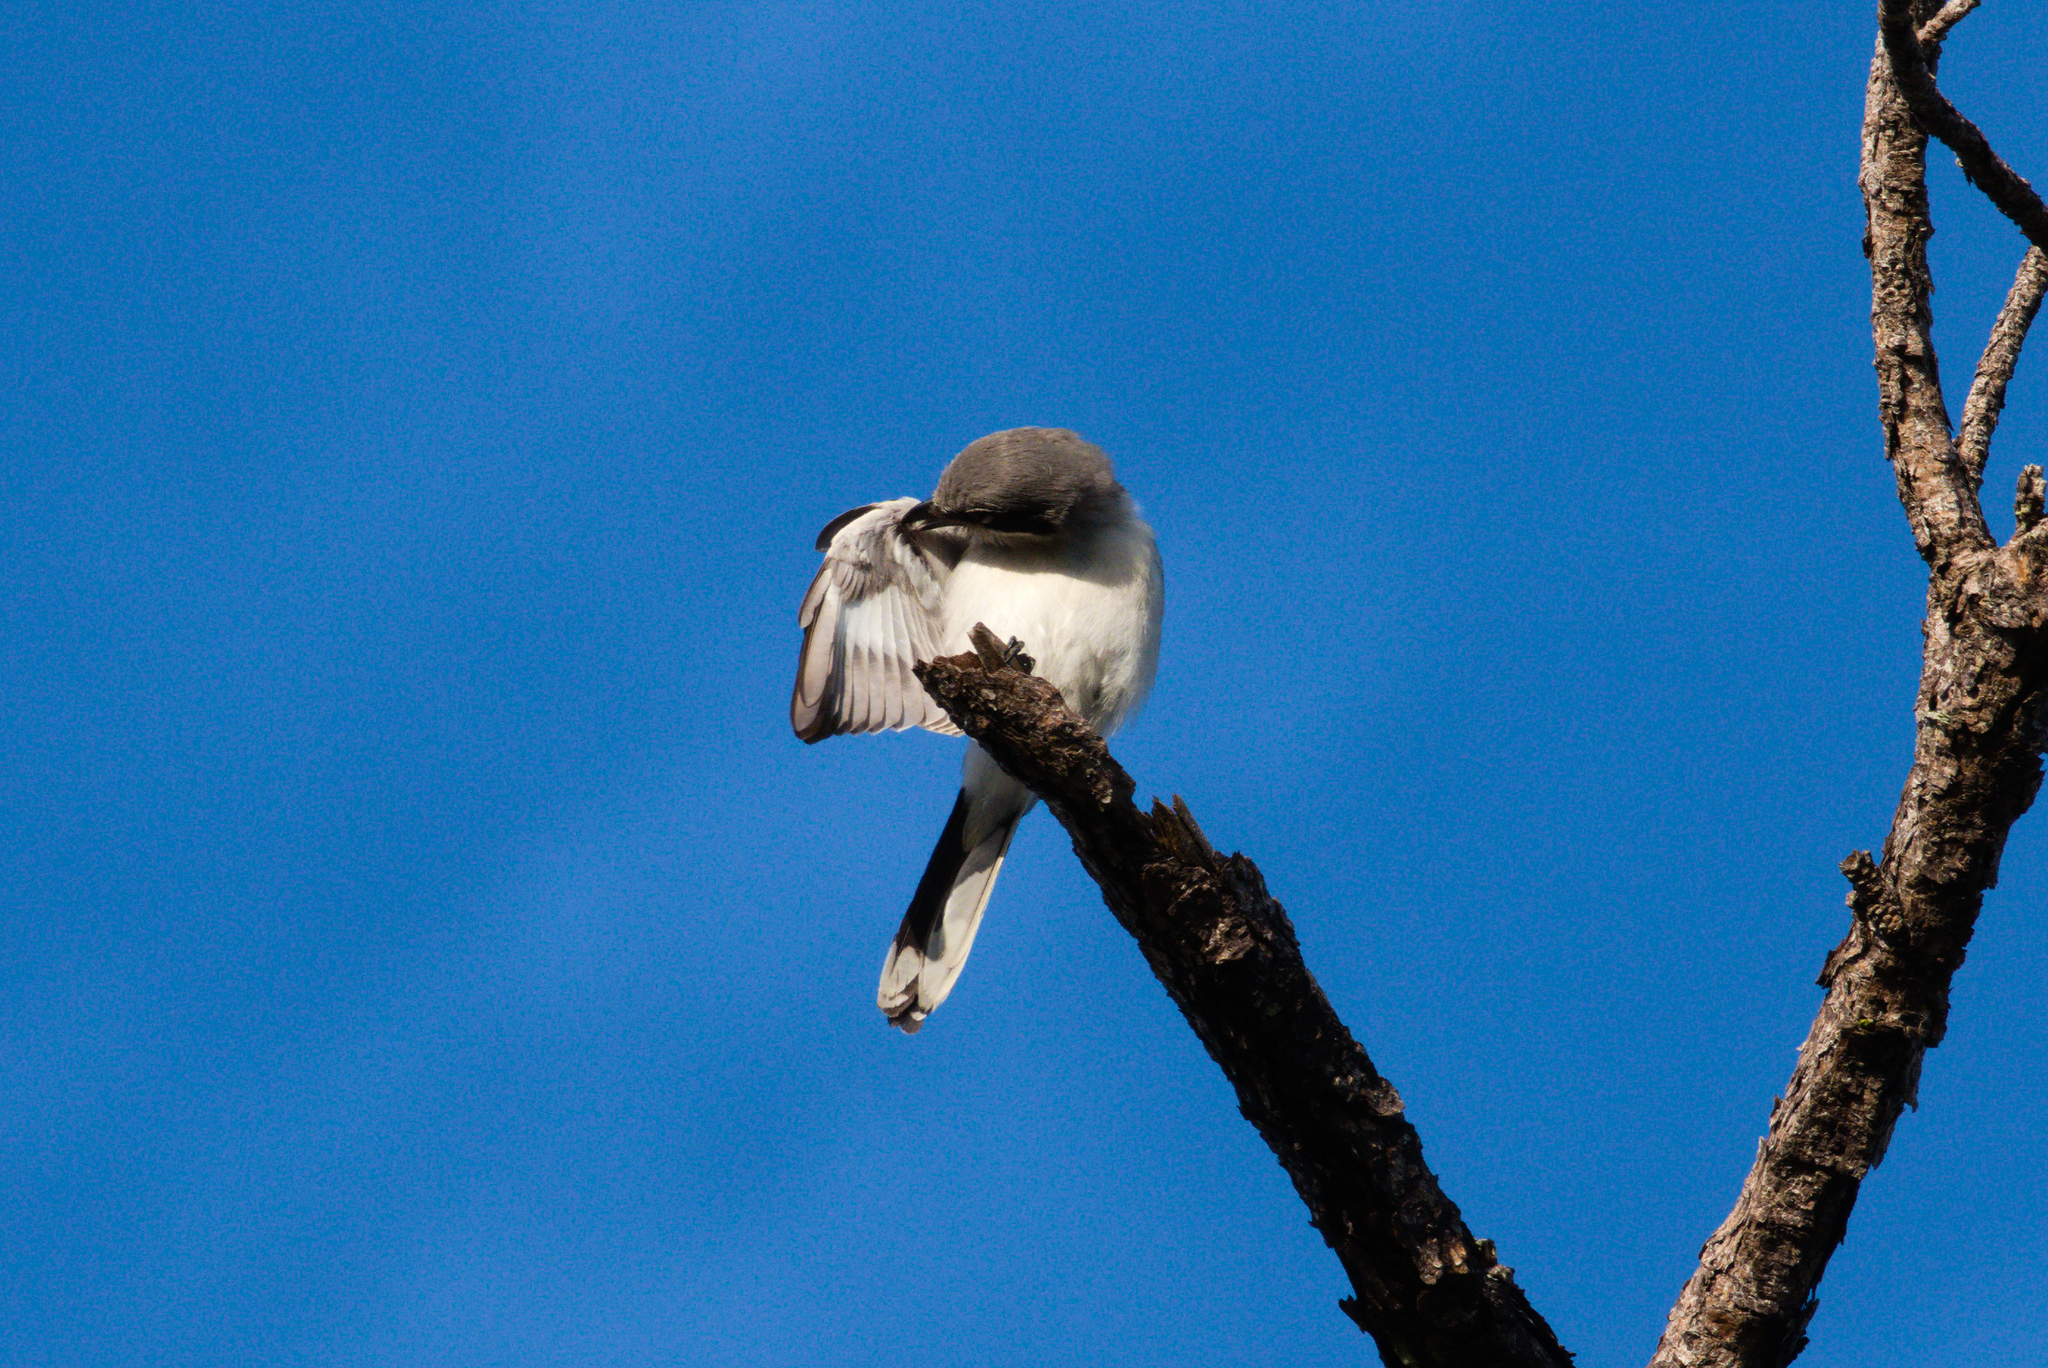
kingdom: Animalia
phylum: Chordata
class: Aves
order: Passeriformes
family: Laniidae
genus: Lanius
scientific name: Lanius ludovicianus
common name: Loggerhead shrike
